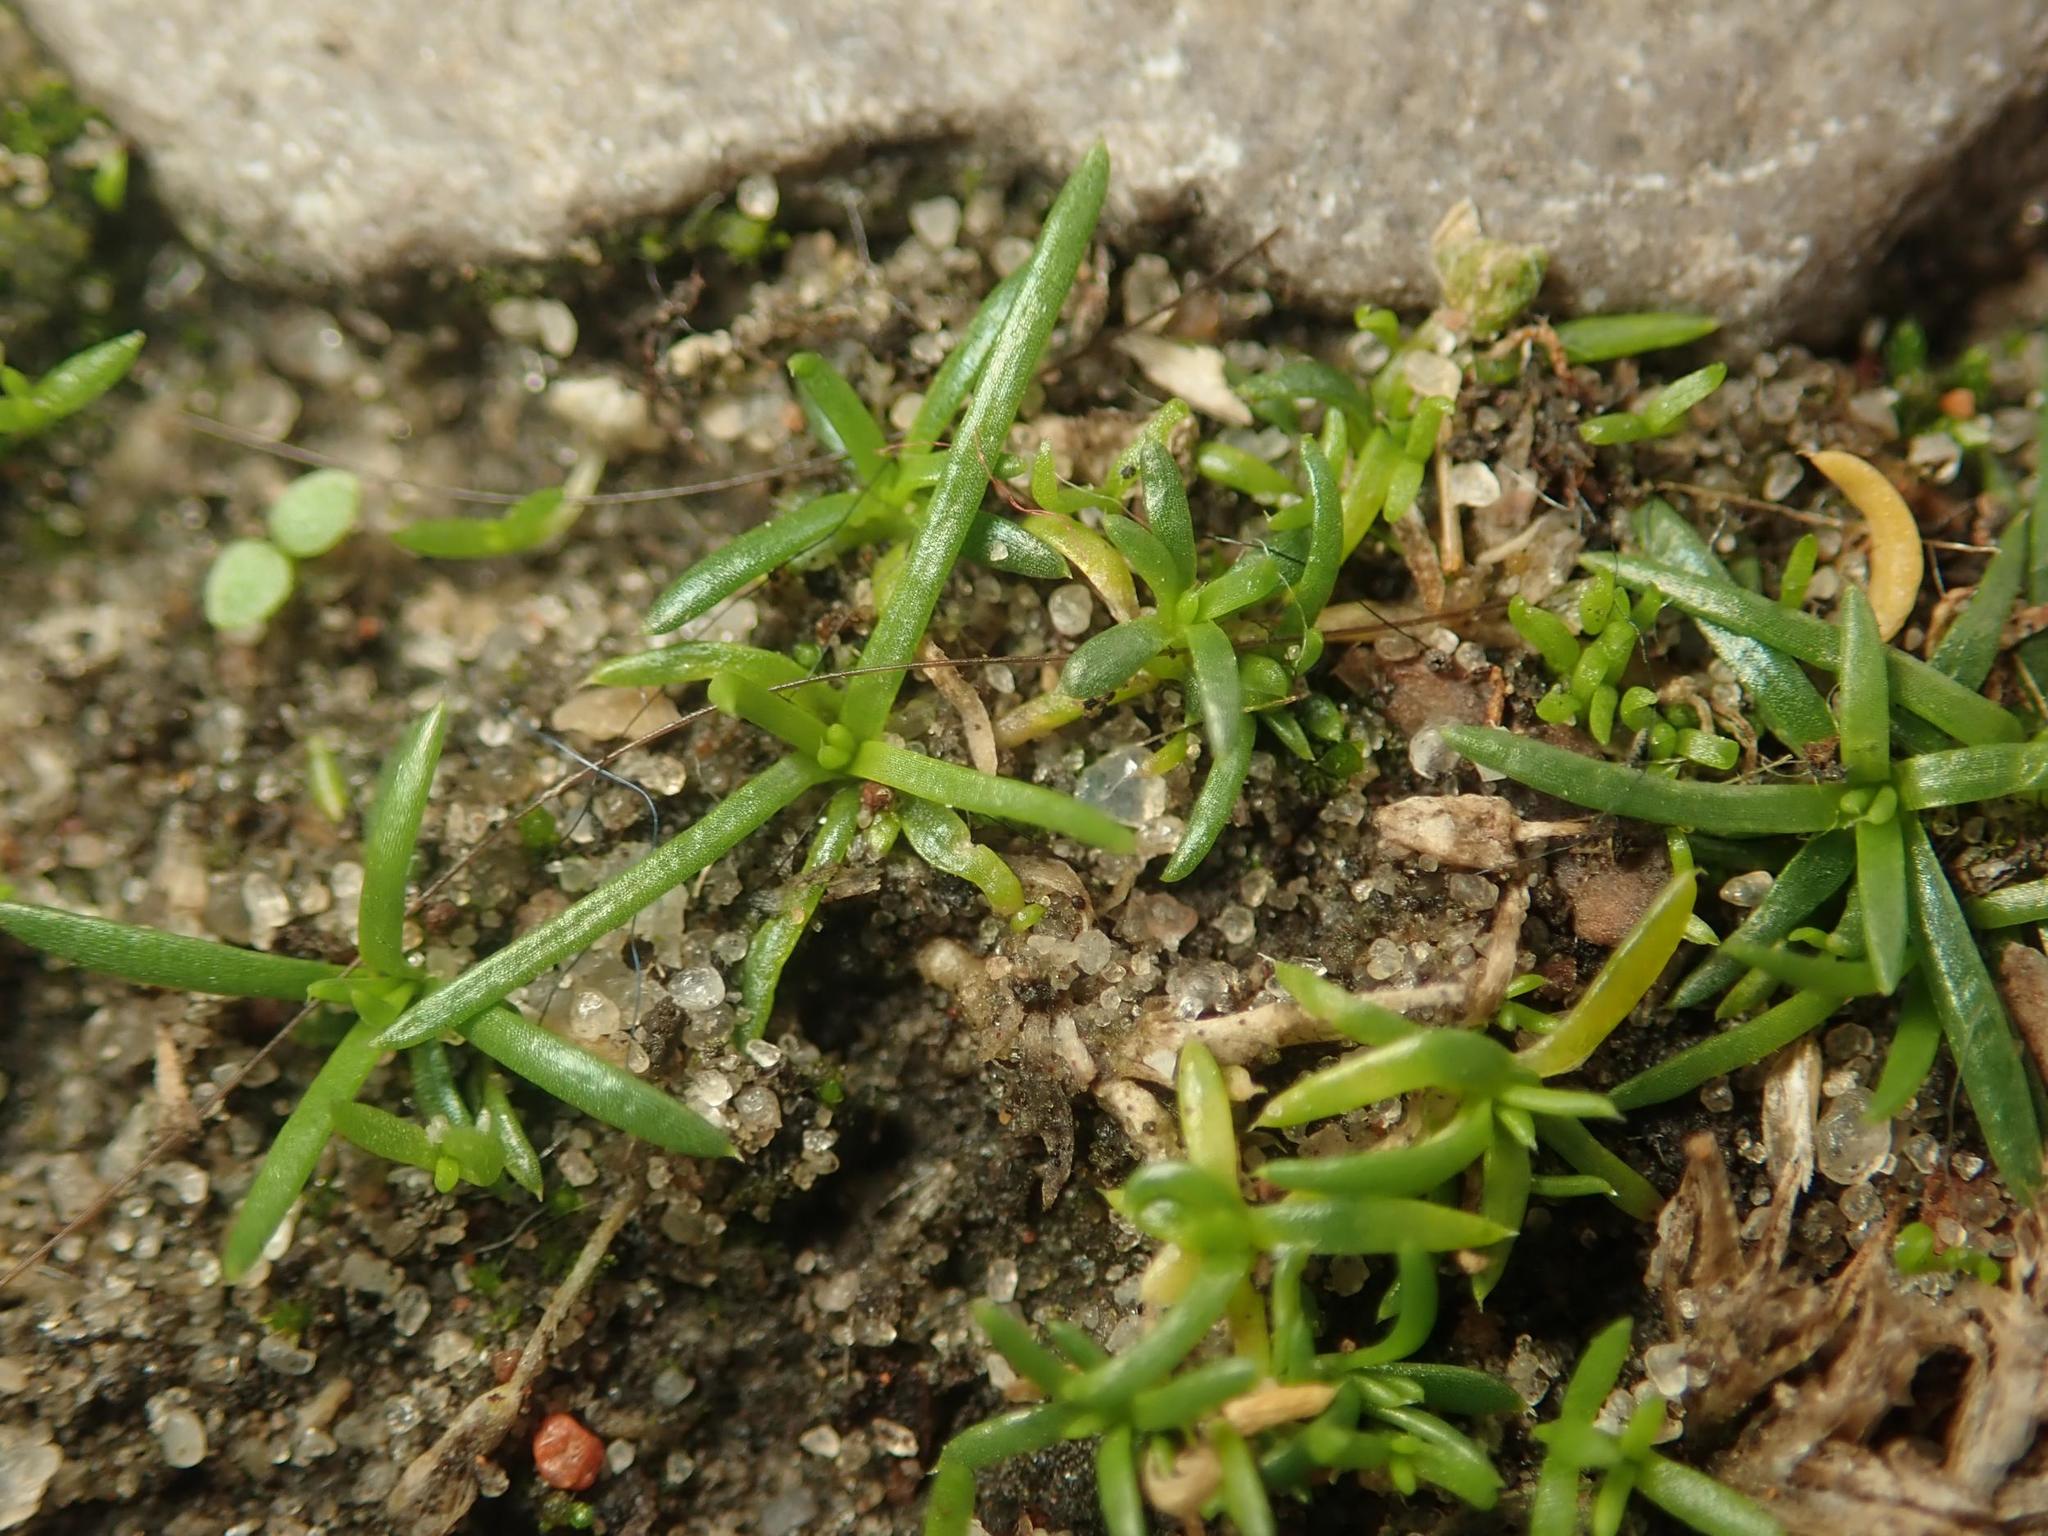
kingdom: Plantae
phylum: Tracheophyta
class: Magnoliopsida
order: Caryophyllales
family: Caryophyllaceae
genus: Sagina
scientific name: Sagina procumbens
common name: Procumbent pearlwort
